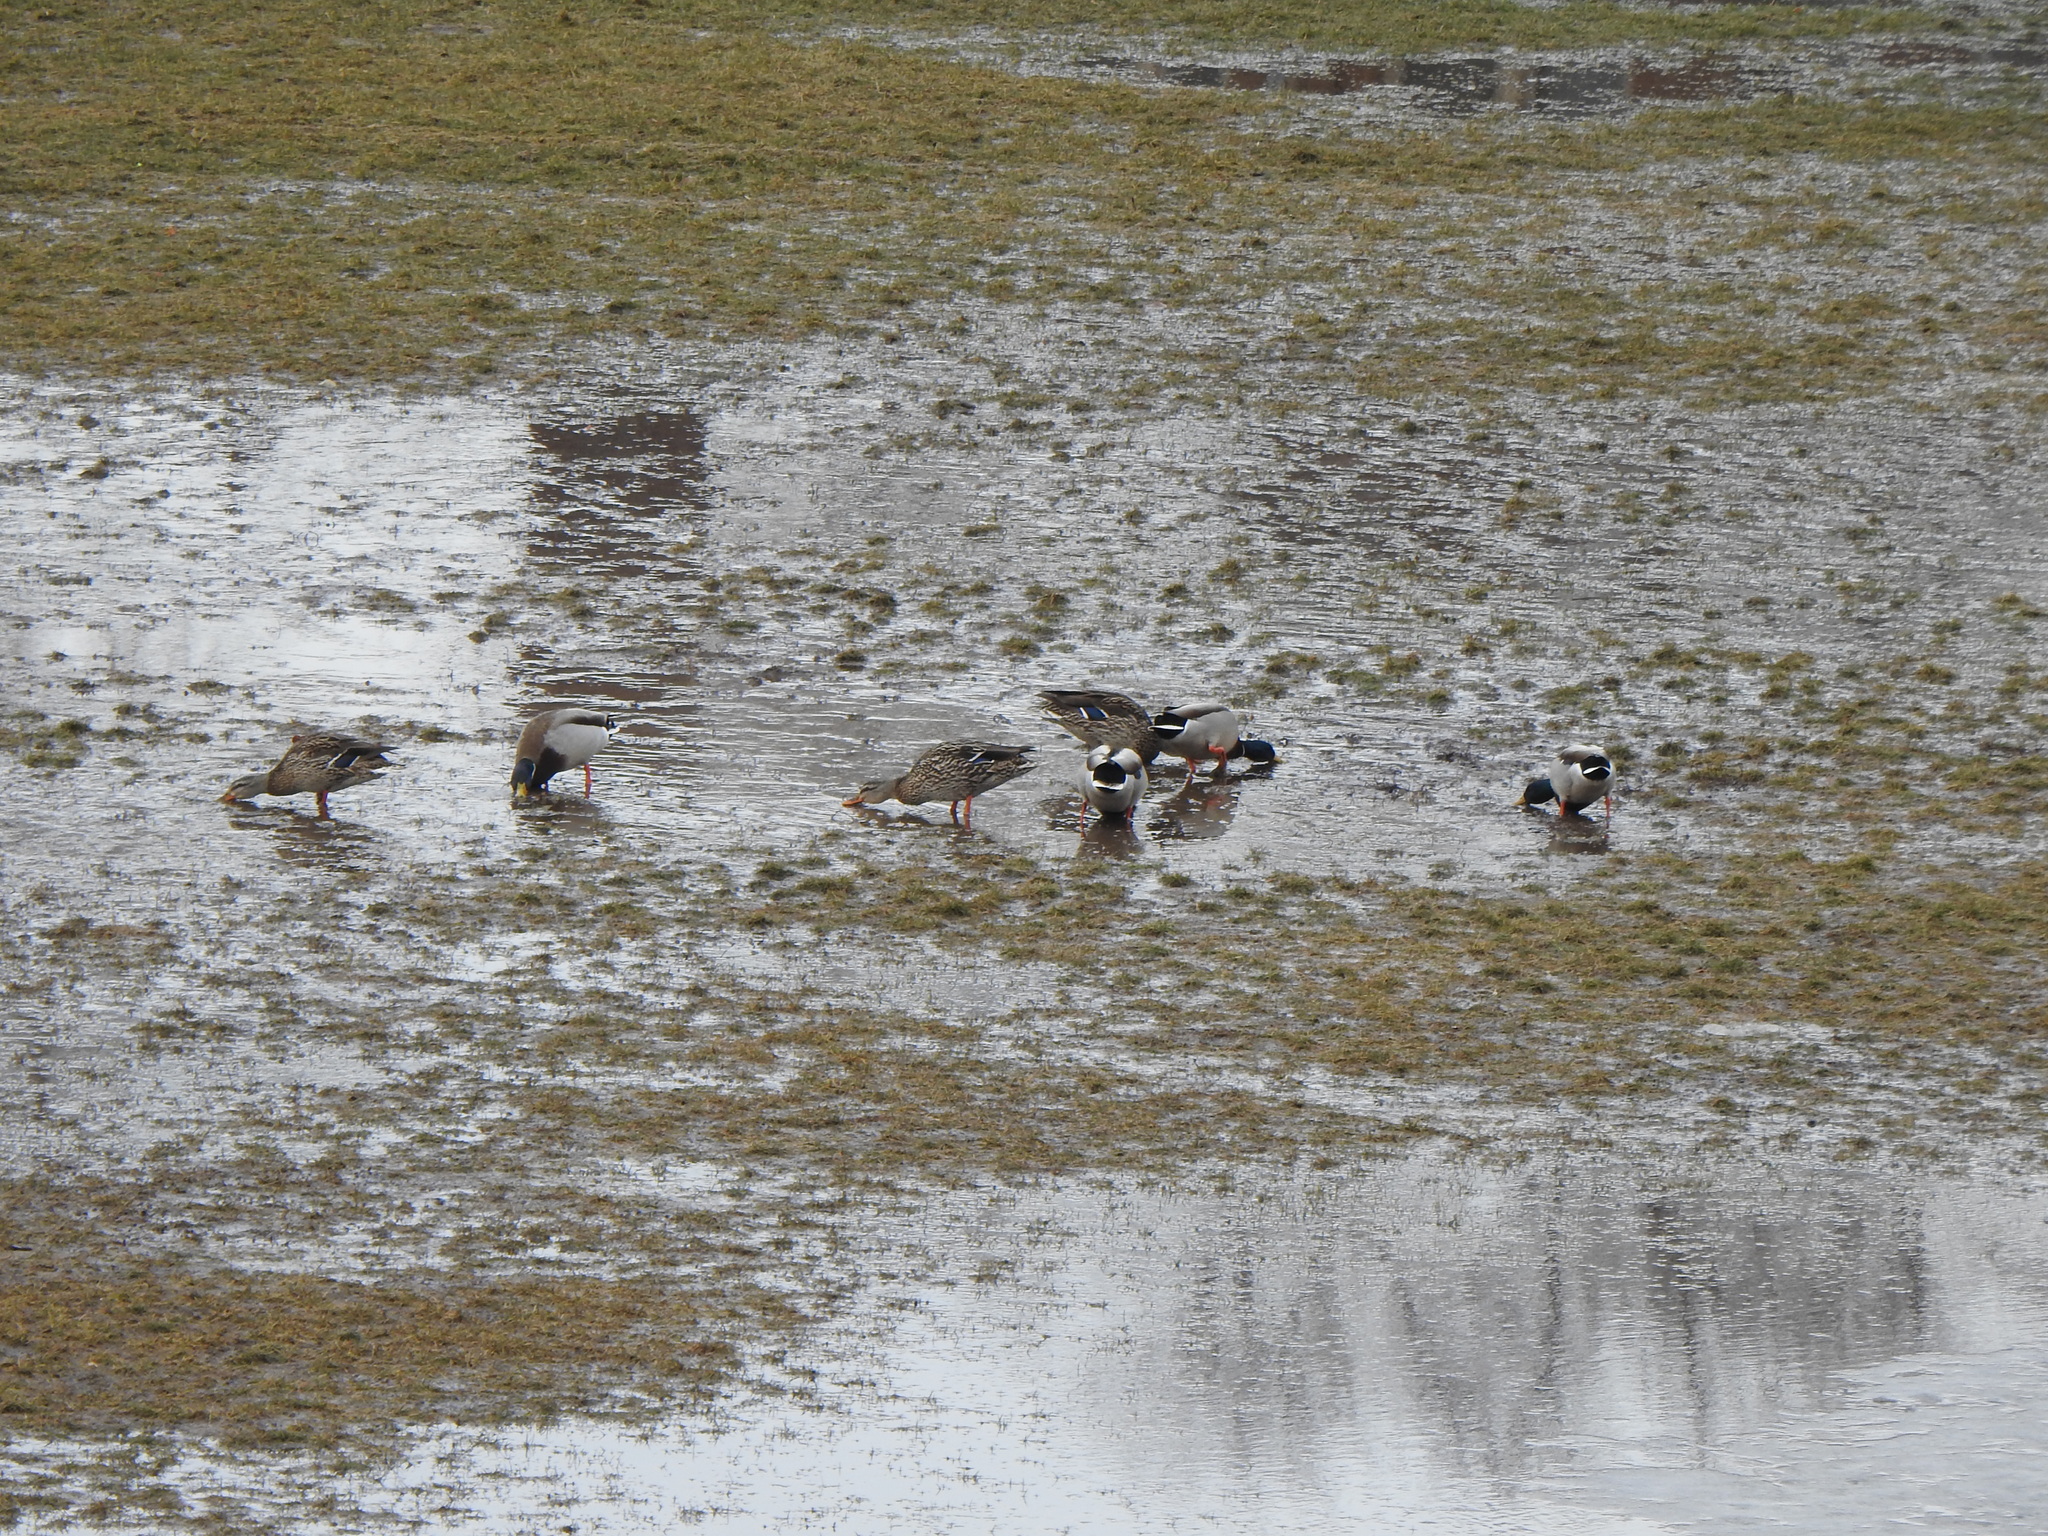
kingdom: Animalia
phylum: Chordata
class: Aves
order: Anseriformes
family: Anatidae
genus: Anas
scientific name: Anas platyrhynchos
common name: Mallard
